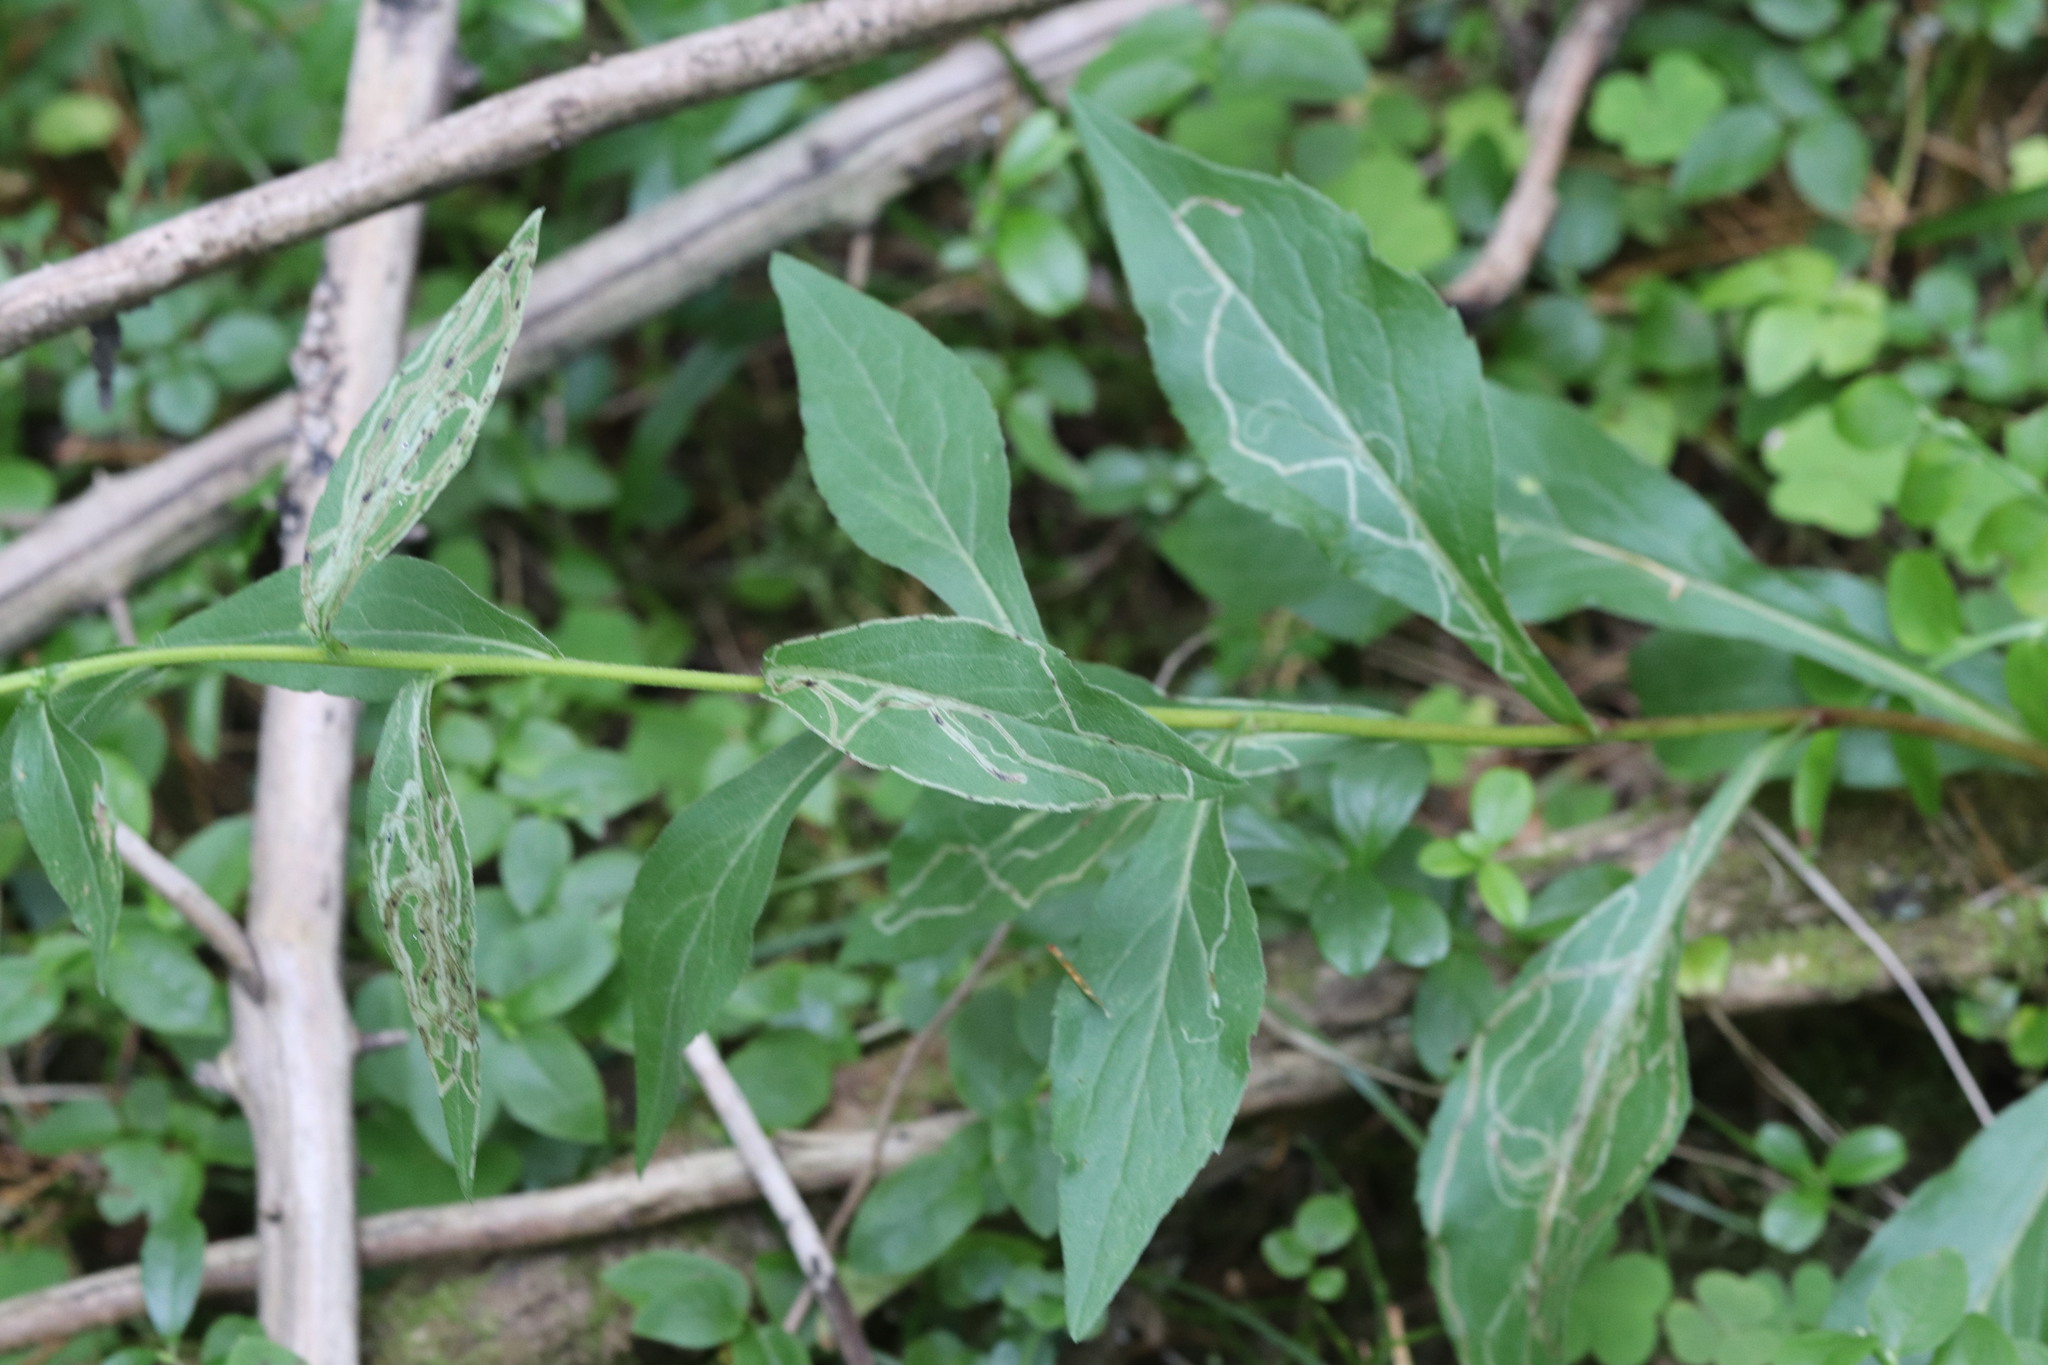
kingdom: Plantae
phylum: Tracheophyta
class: Magnoliopsida
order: Asterales
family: Asteraceae
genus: Solidago
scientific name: Solidago virgaurea
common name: Goldenrod
